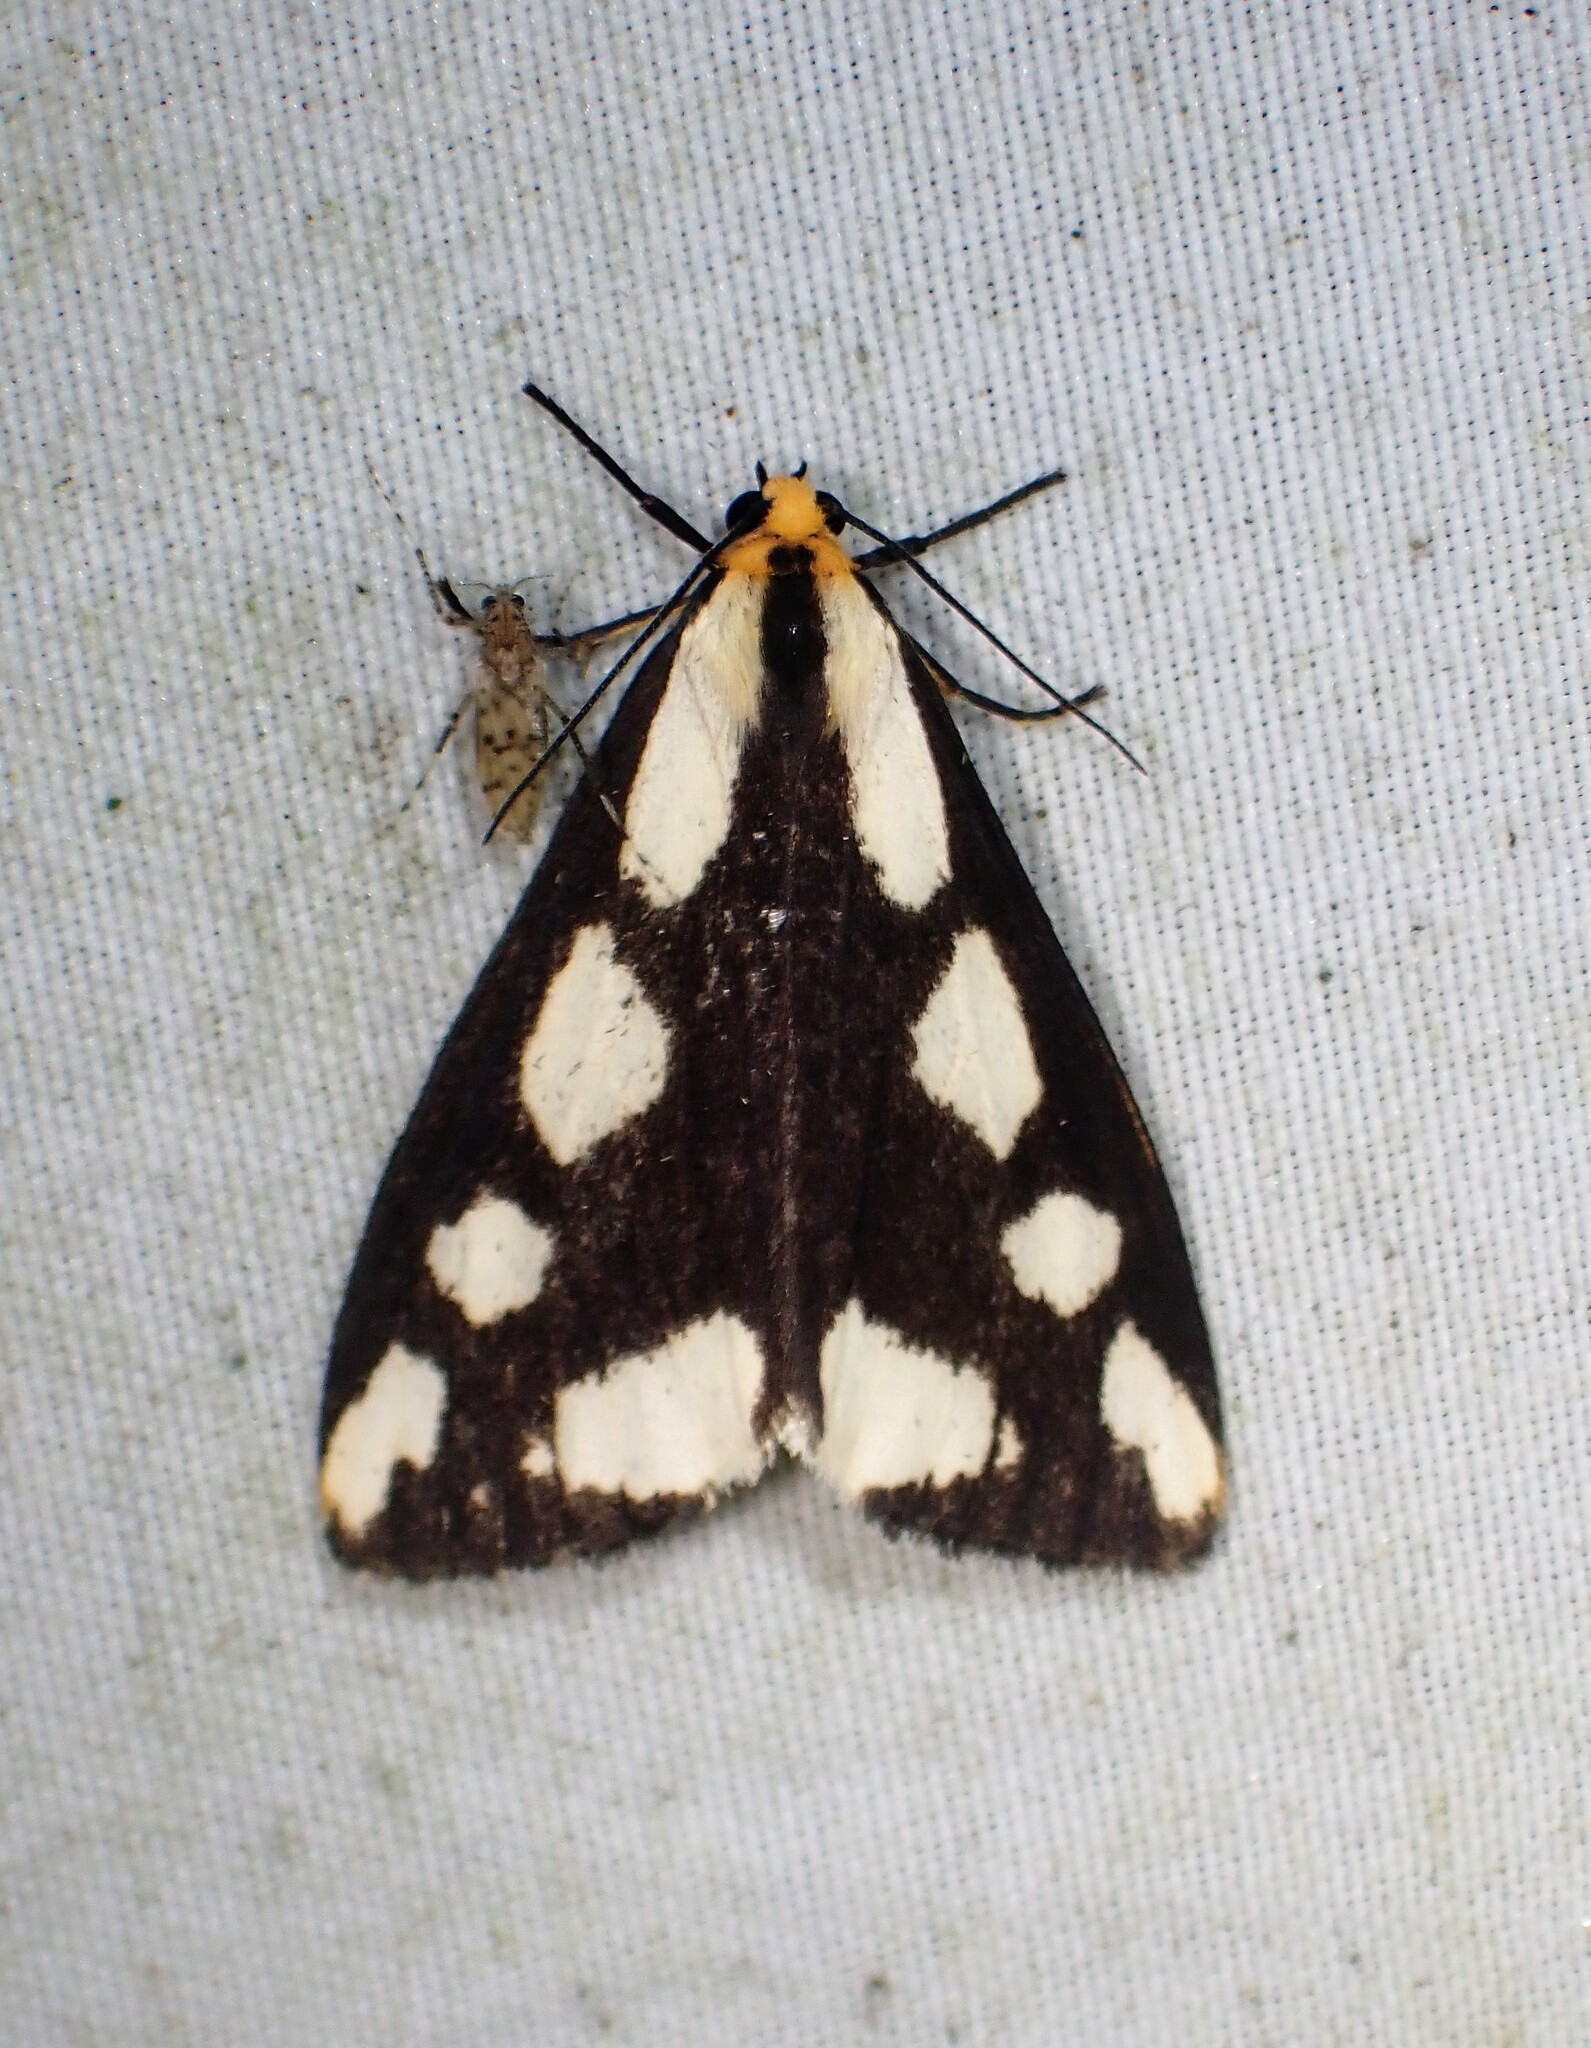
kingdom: Animalia
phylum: Arthropoda
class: Insecta
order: Lepidoptera
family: Erebidae
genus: Haploa
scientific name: Haploa lecontei
